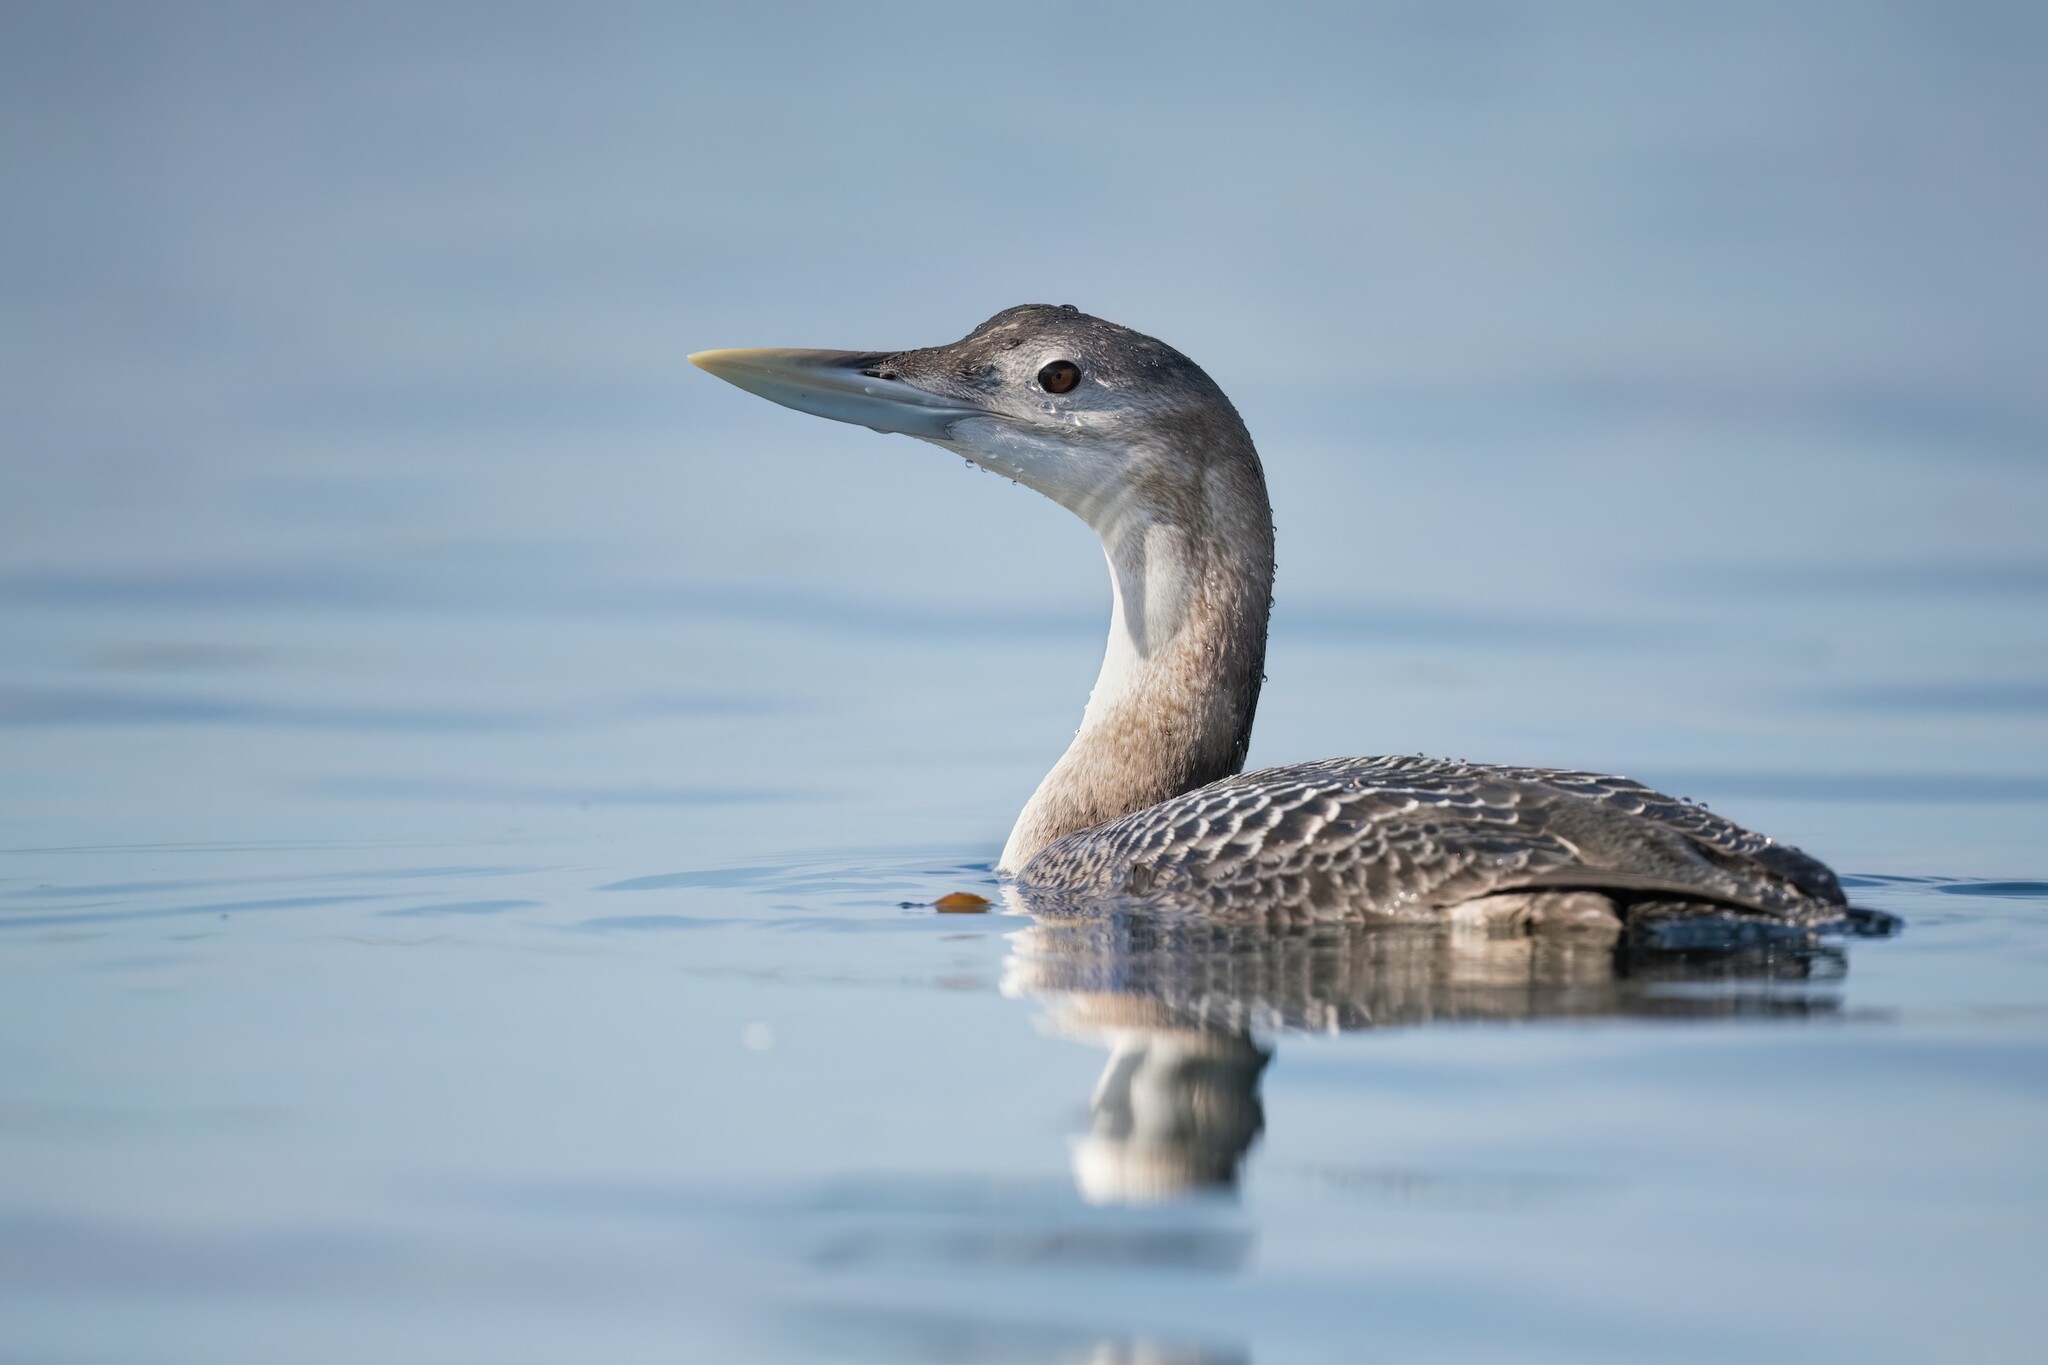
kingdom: Animalia
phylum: Chordata
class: Aves
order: Gaviiformes
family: Gaviidae
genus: Gavia
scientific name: Gavia adamsii
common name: Yellow-billed loon
